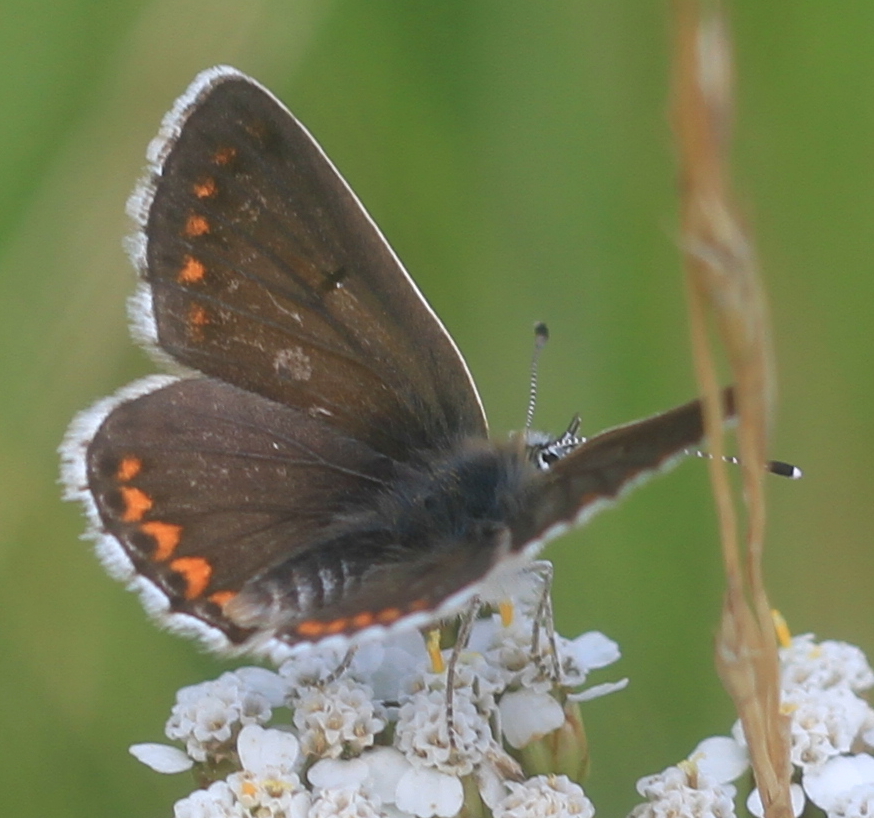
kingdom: Animalia
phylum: Arthropoda
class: Insecta
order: Lepidoptera
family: Lycaenidae
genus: Aricia
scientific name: Aricia agestis
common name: Brown argus
